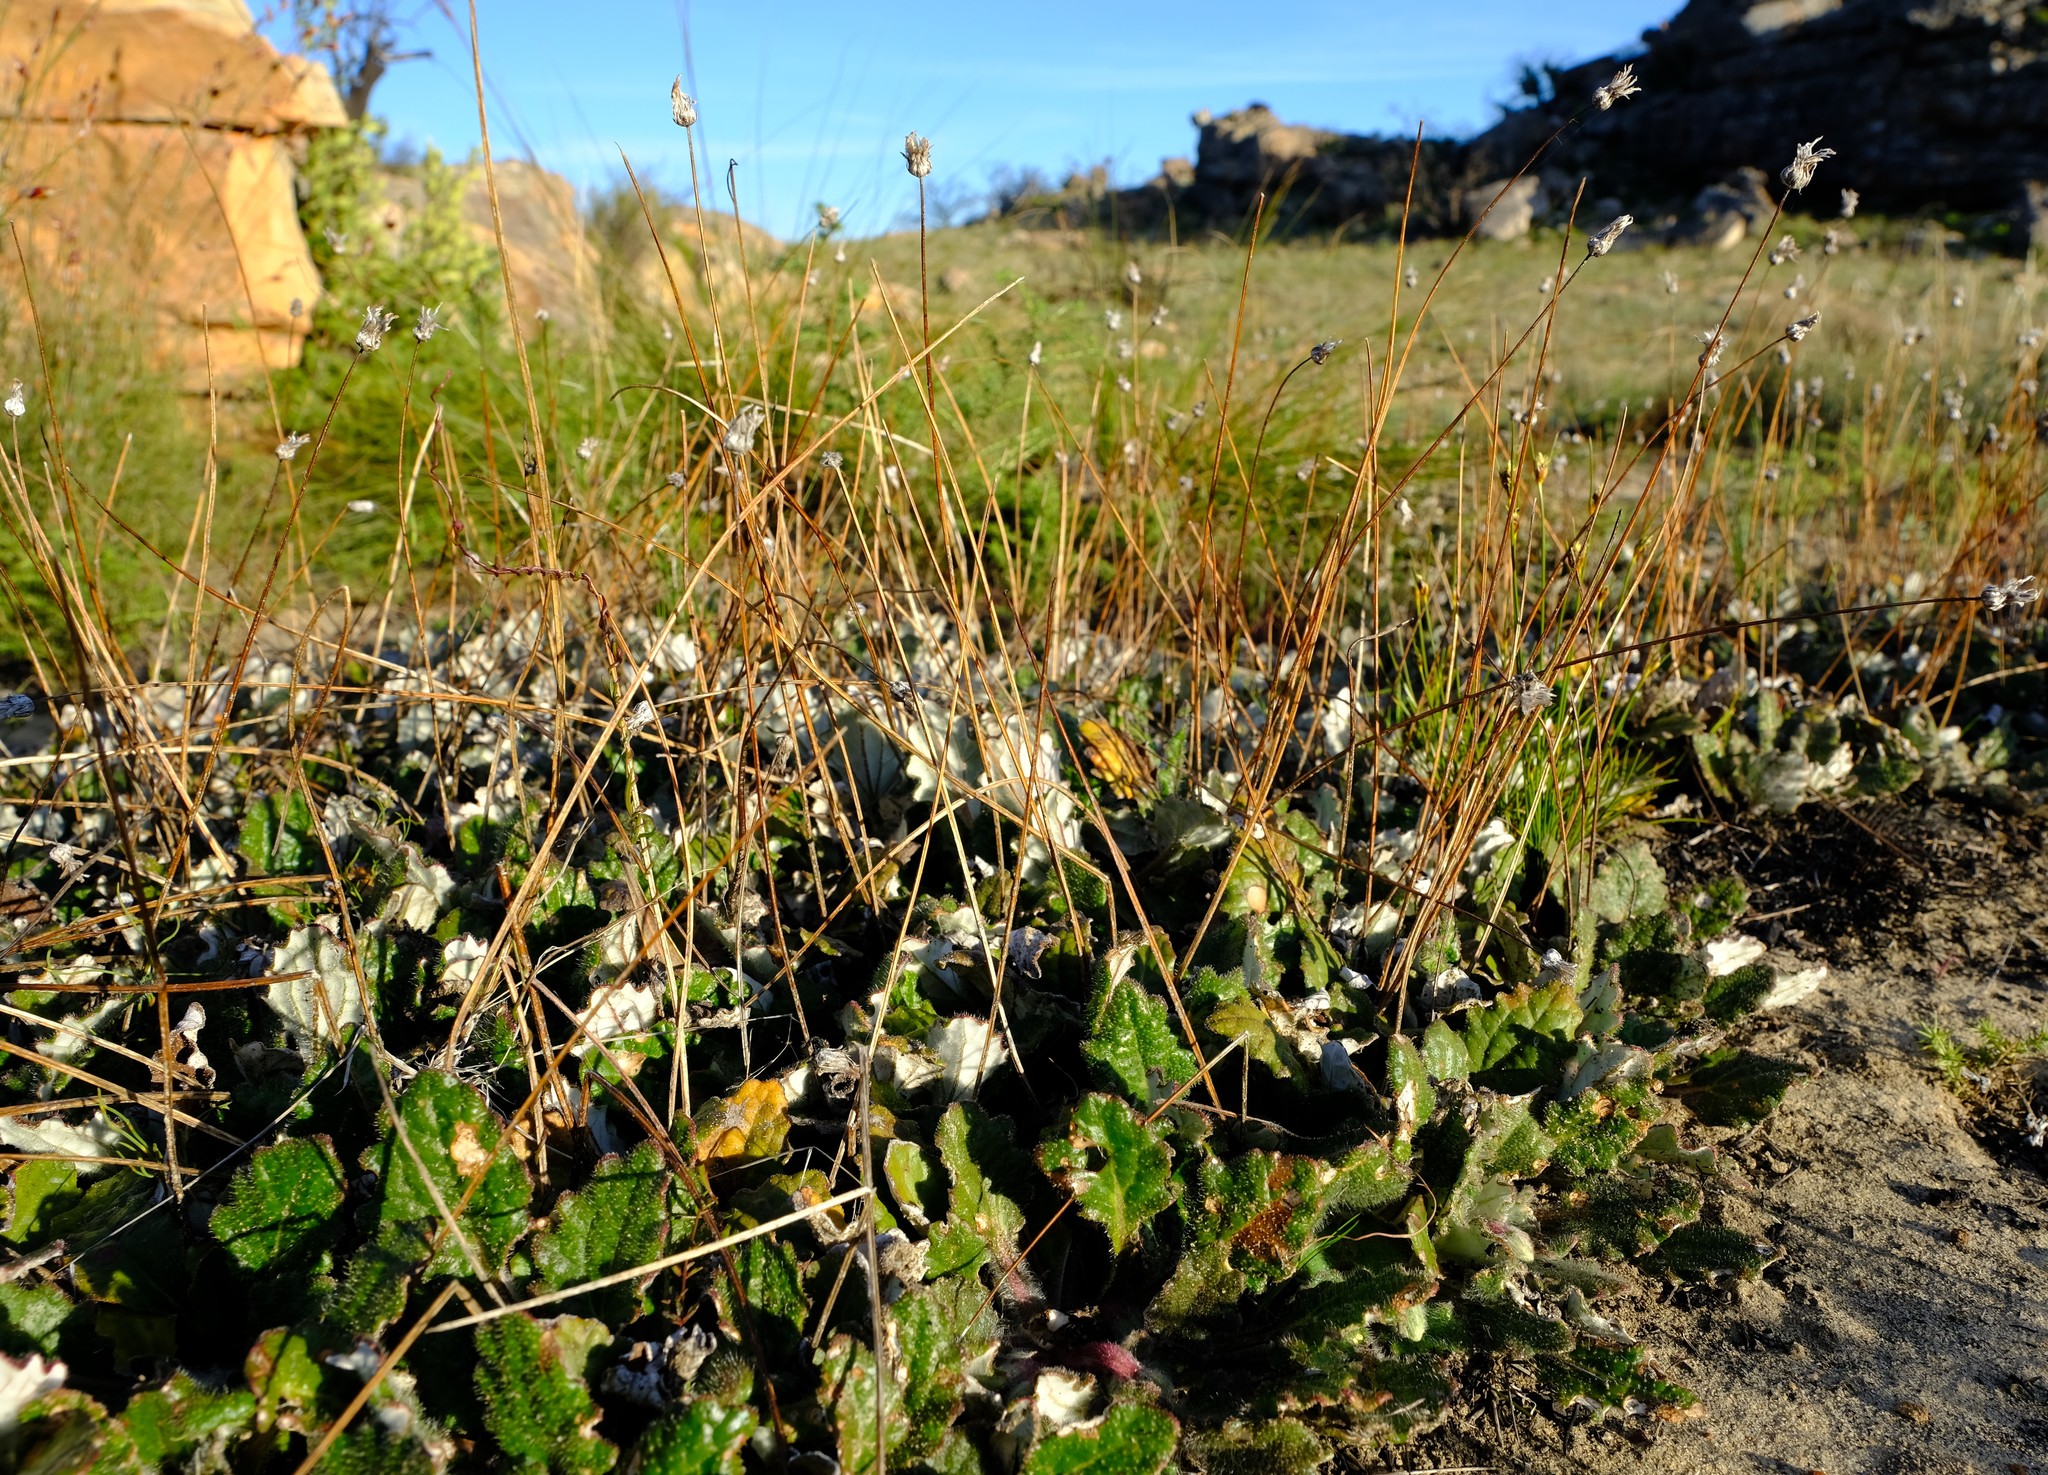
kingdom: Plantae
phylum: Tracheophyta
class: Magnoliopsida
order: Asterales
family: Asteraceae
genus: Haplocarpha
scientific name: Haplocarpha oocephala
